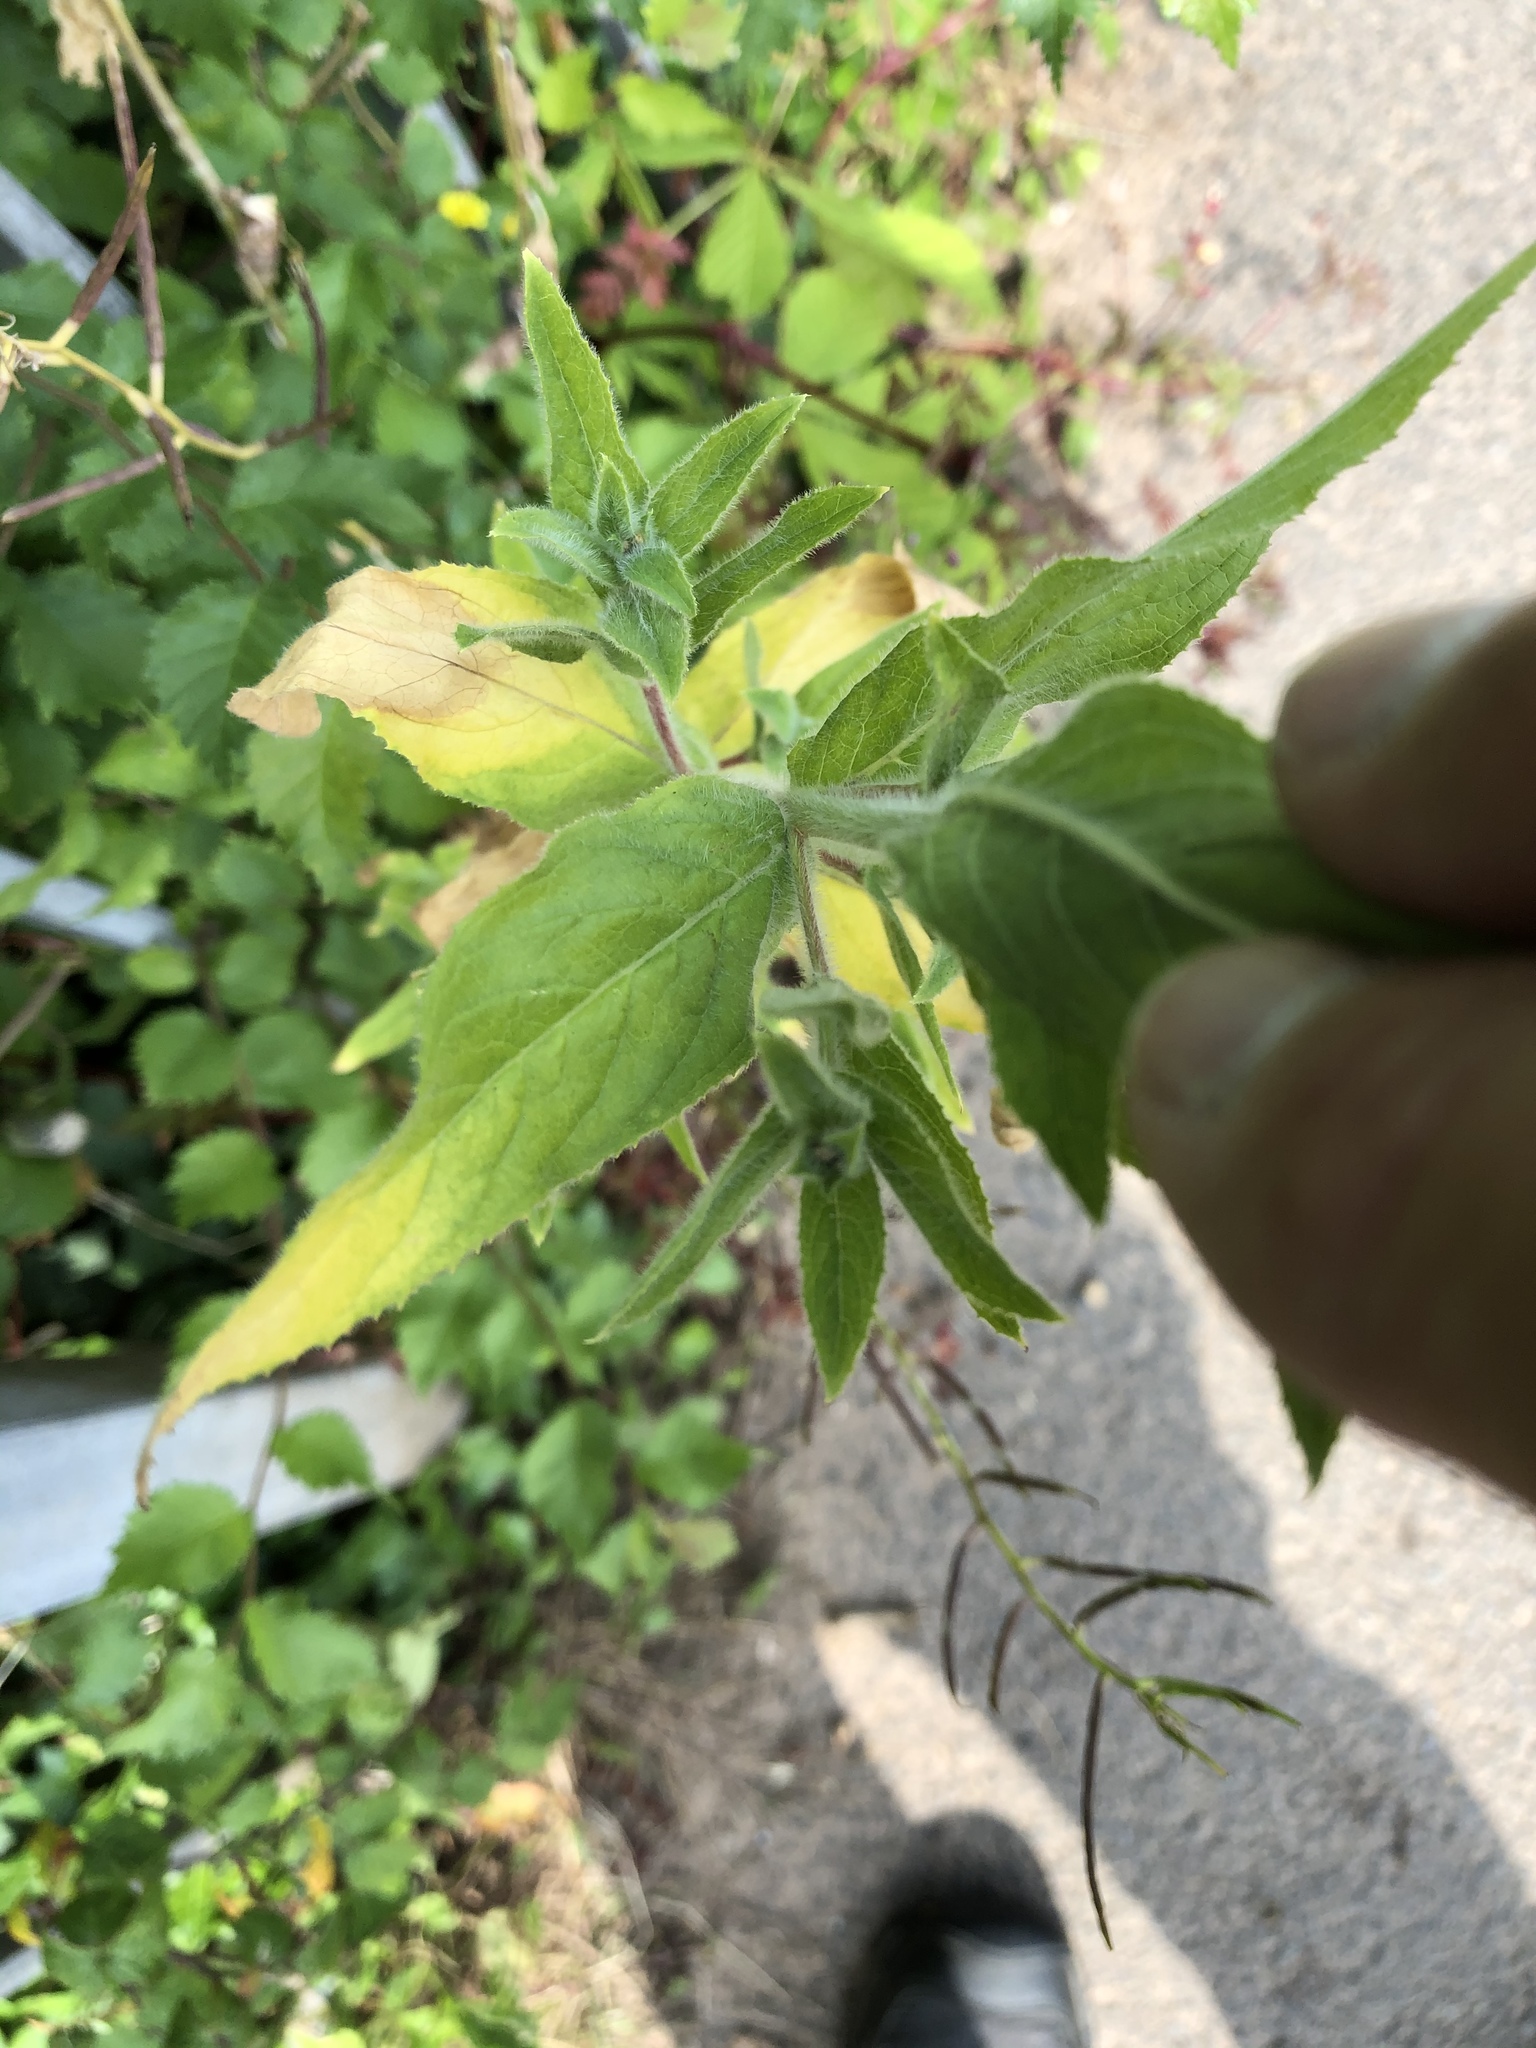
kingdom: Plantae
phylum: Tracheophyta
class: Magnoliopsida
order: Myrtales
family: Onagraceae
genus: Epilobium
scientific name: Epilobium hirsutum
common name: Great willowherb
